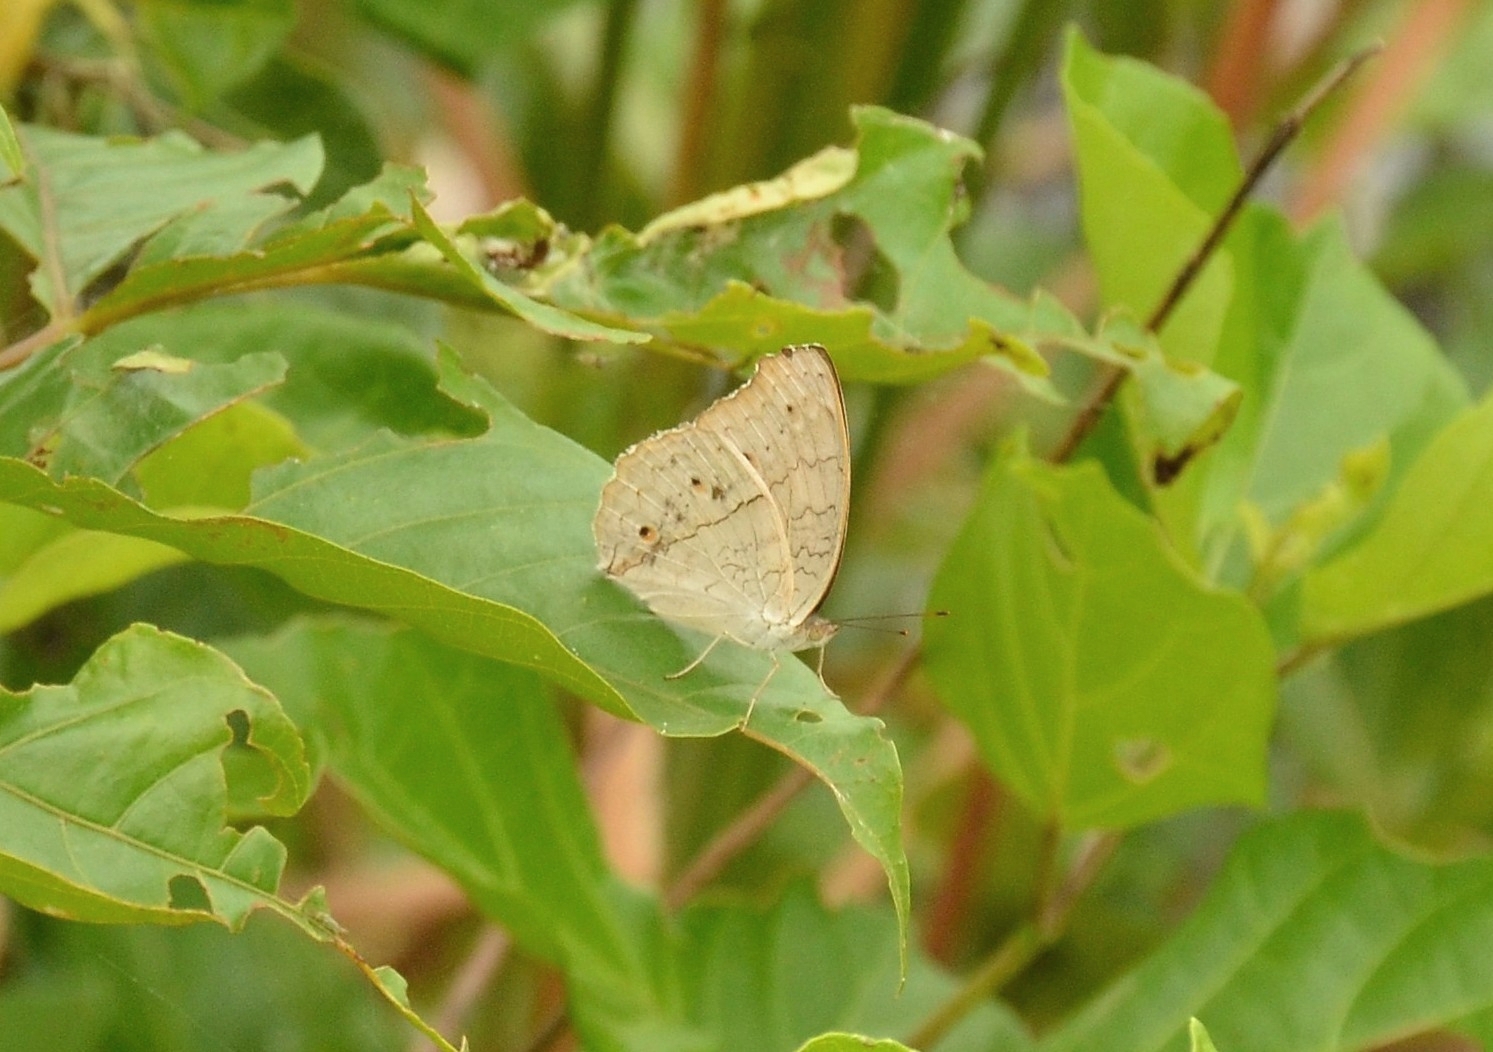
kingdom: Animalia
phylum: Arthropoda
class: Insecta
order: Lepidoptera
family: Nymphalidae
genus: Junonia
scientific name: Junonia atlites
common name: Grey pansy
